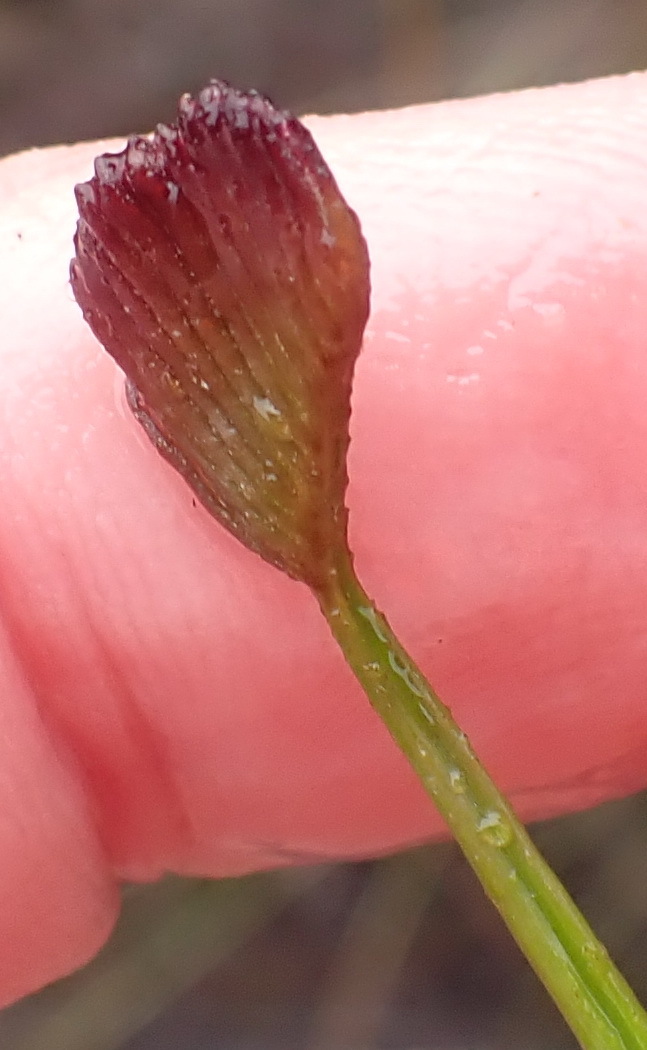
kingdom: Plantae
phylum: Tracheophyta
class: Polypodiopsida
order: Schizaeales
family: Schizaeaceae
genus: Schizaea
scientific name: Schizaea pectinata
